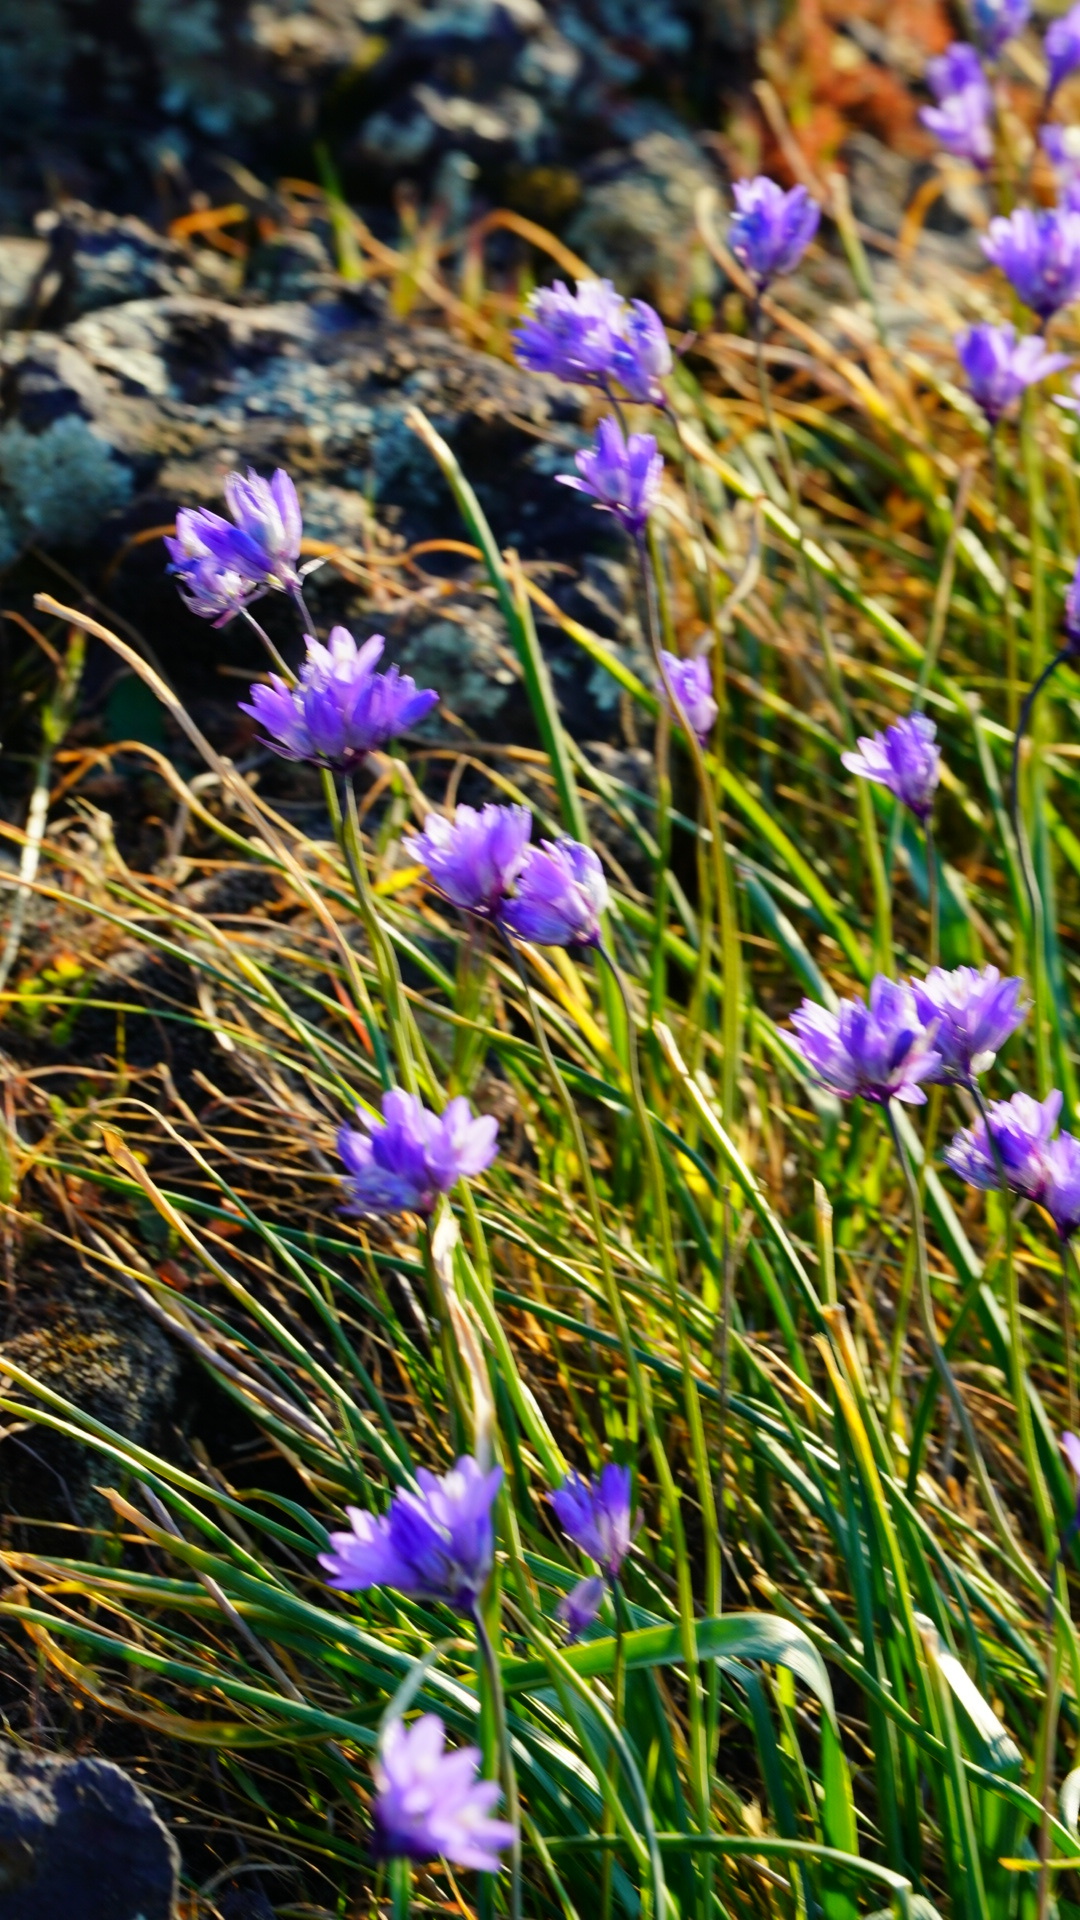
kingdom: Plantae
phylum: Tracheophyta
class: Liliopsida
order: Asparagales
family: Asparagaceae
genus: Dipterostemon
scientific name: Dipterostemon capitatus
